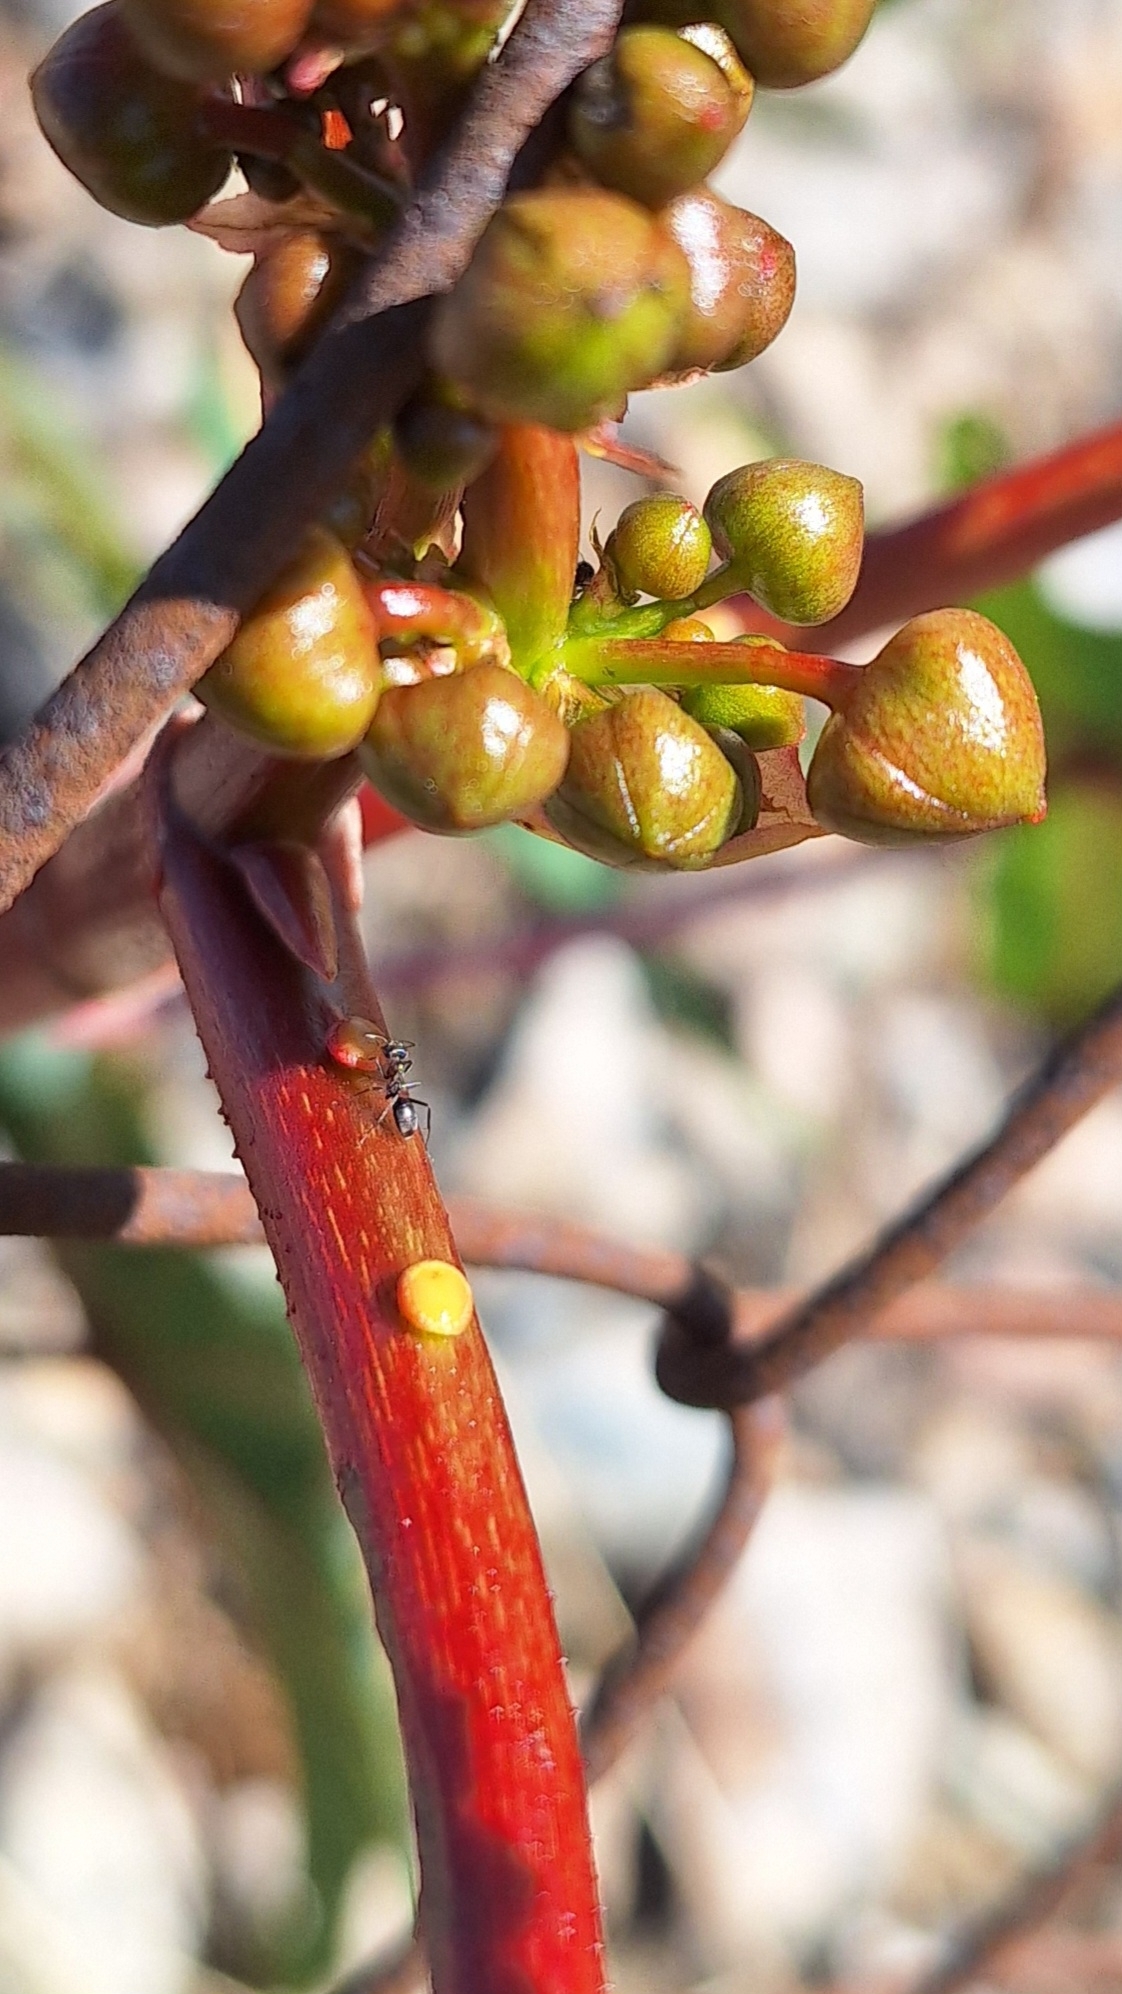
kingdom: Plantae
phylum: Tracheophyta
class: Magnoliopsida
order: Malpighiales
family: Euphorbiaceae
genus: Ricinus
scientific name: Ricinus communis
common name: Castor-oil-plant
